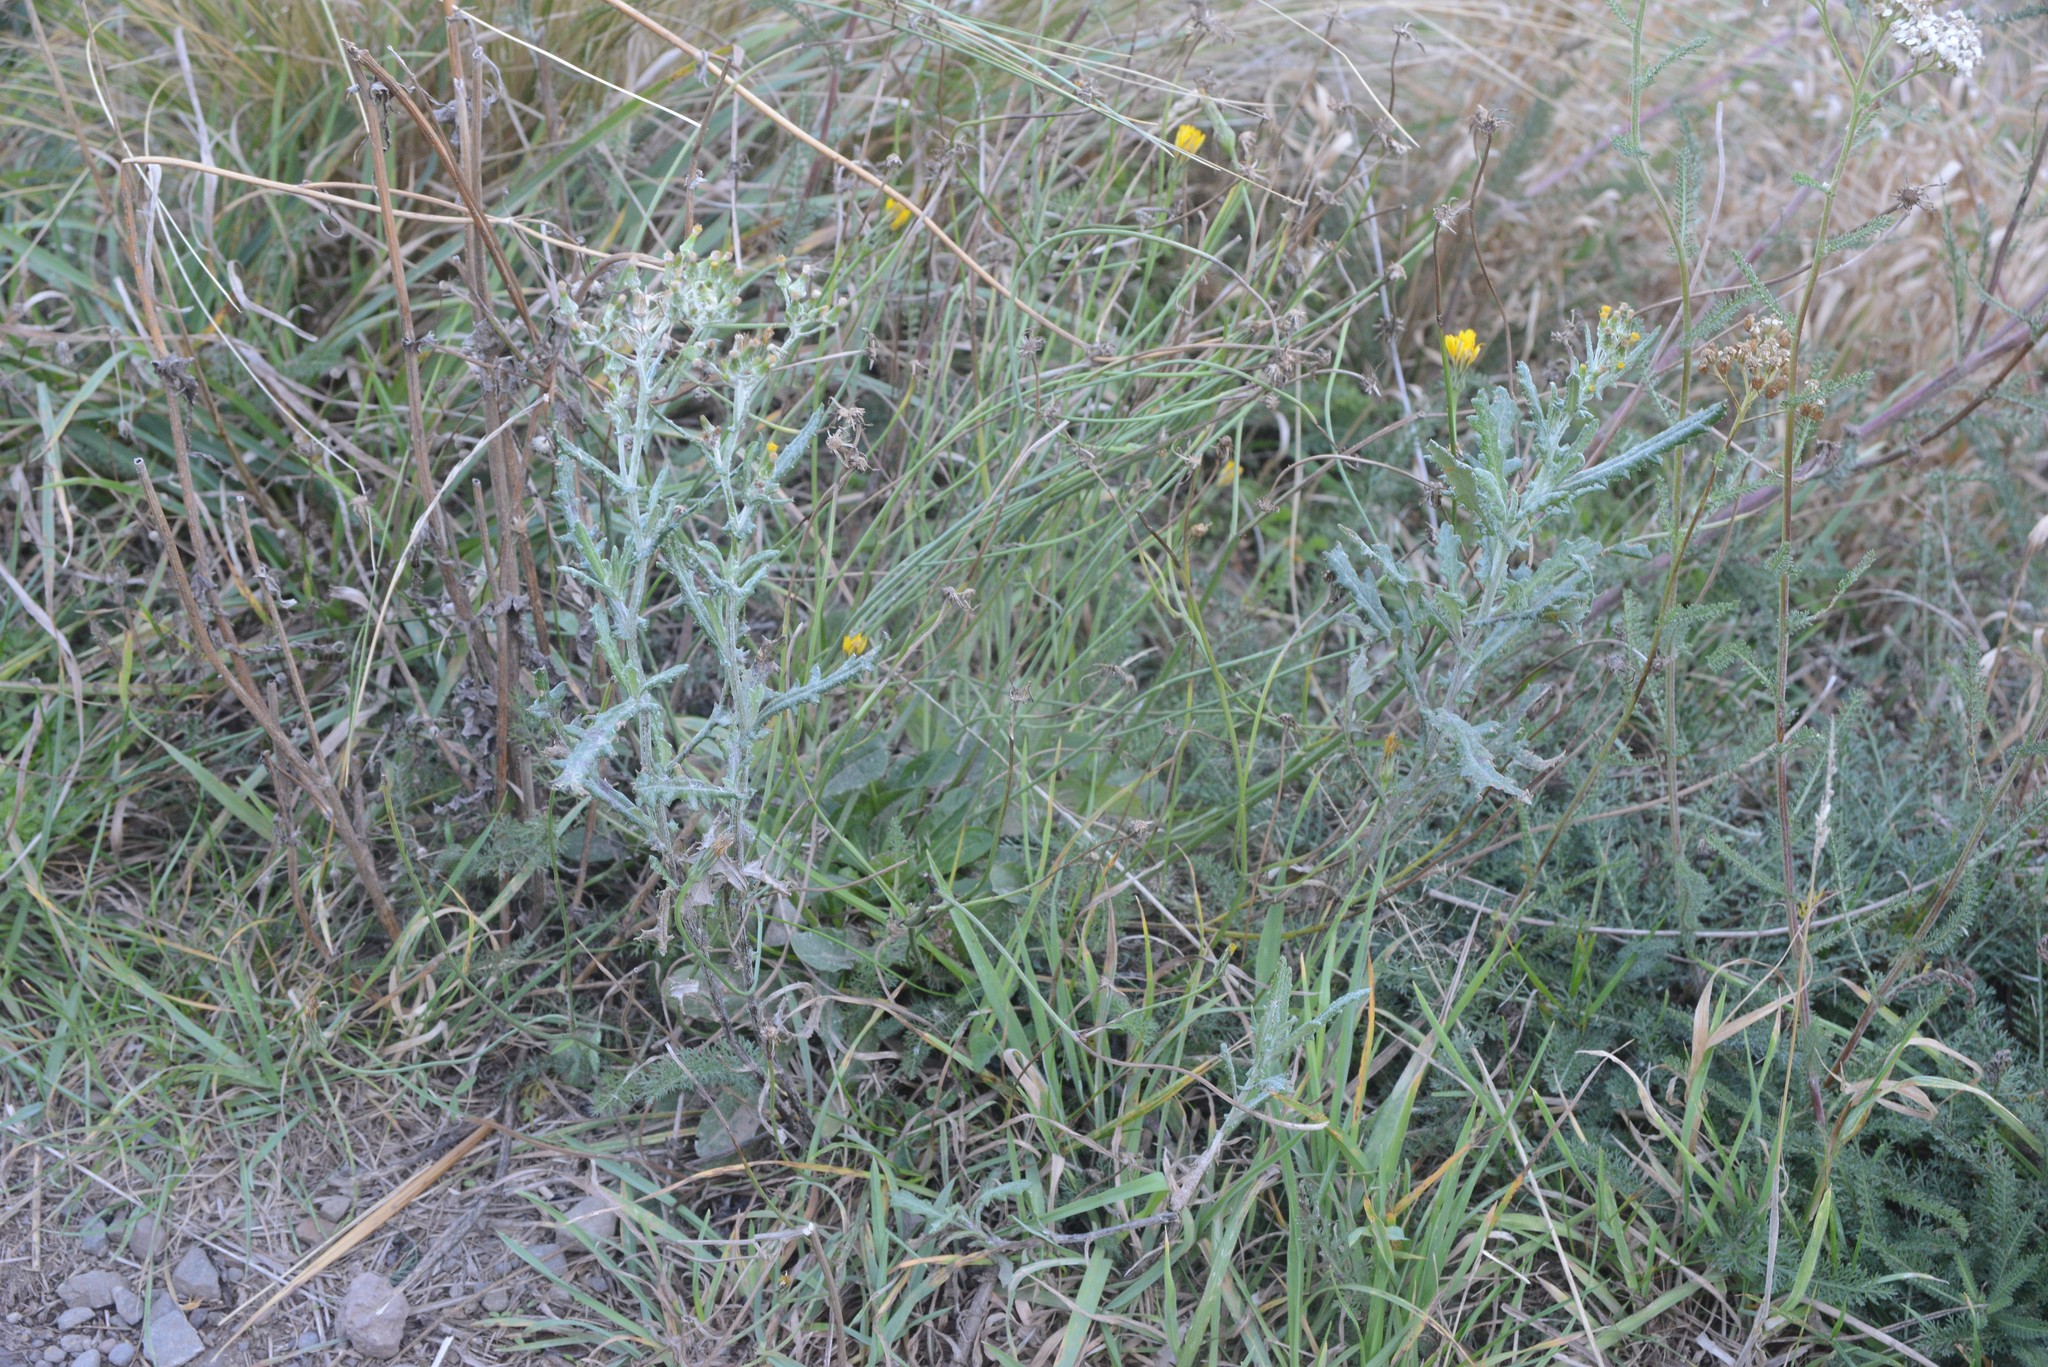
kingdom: Plantae
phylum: Tracheophyta
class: Magnoliopsida
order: Asterales
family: Asteraceae
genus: Senecio
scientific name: Senecio glomeratus
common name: Cutleaf burnweed
